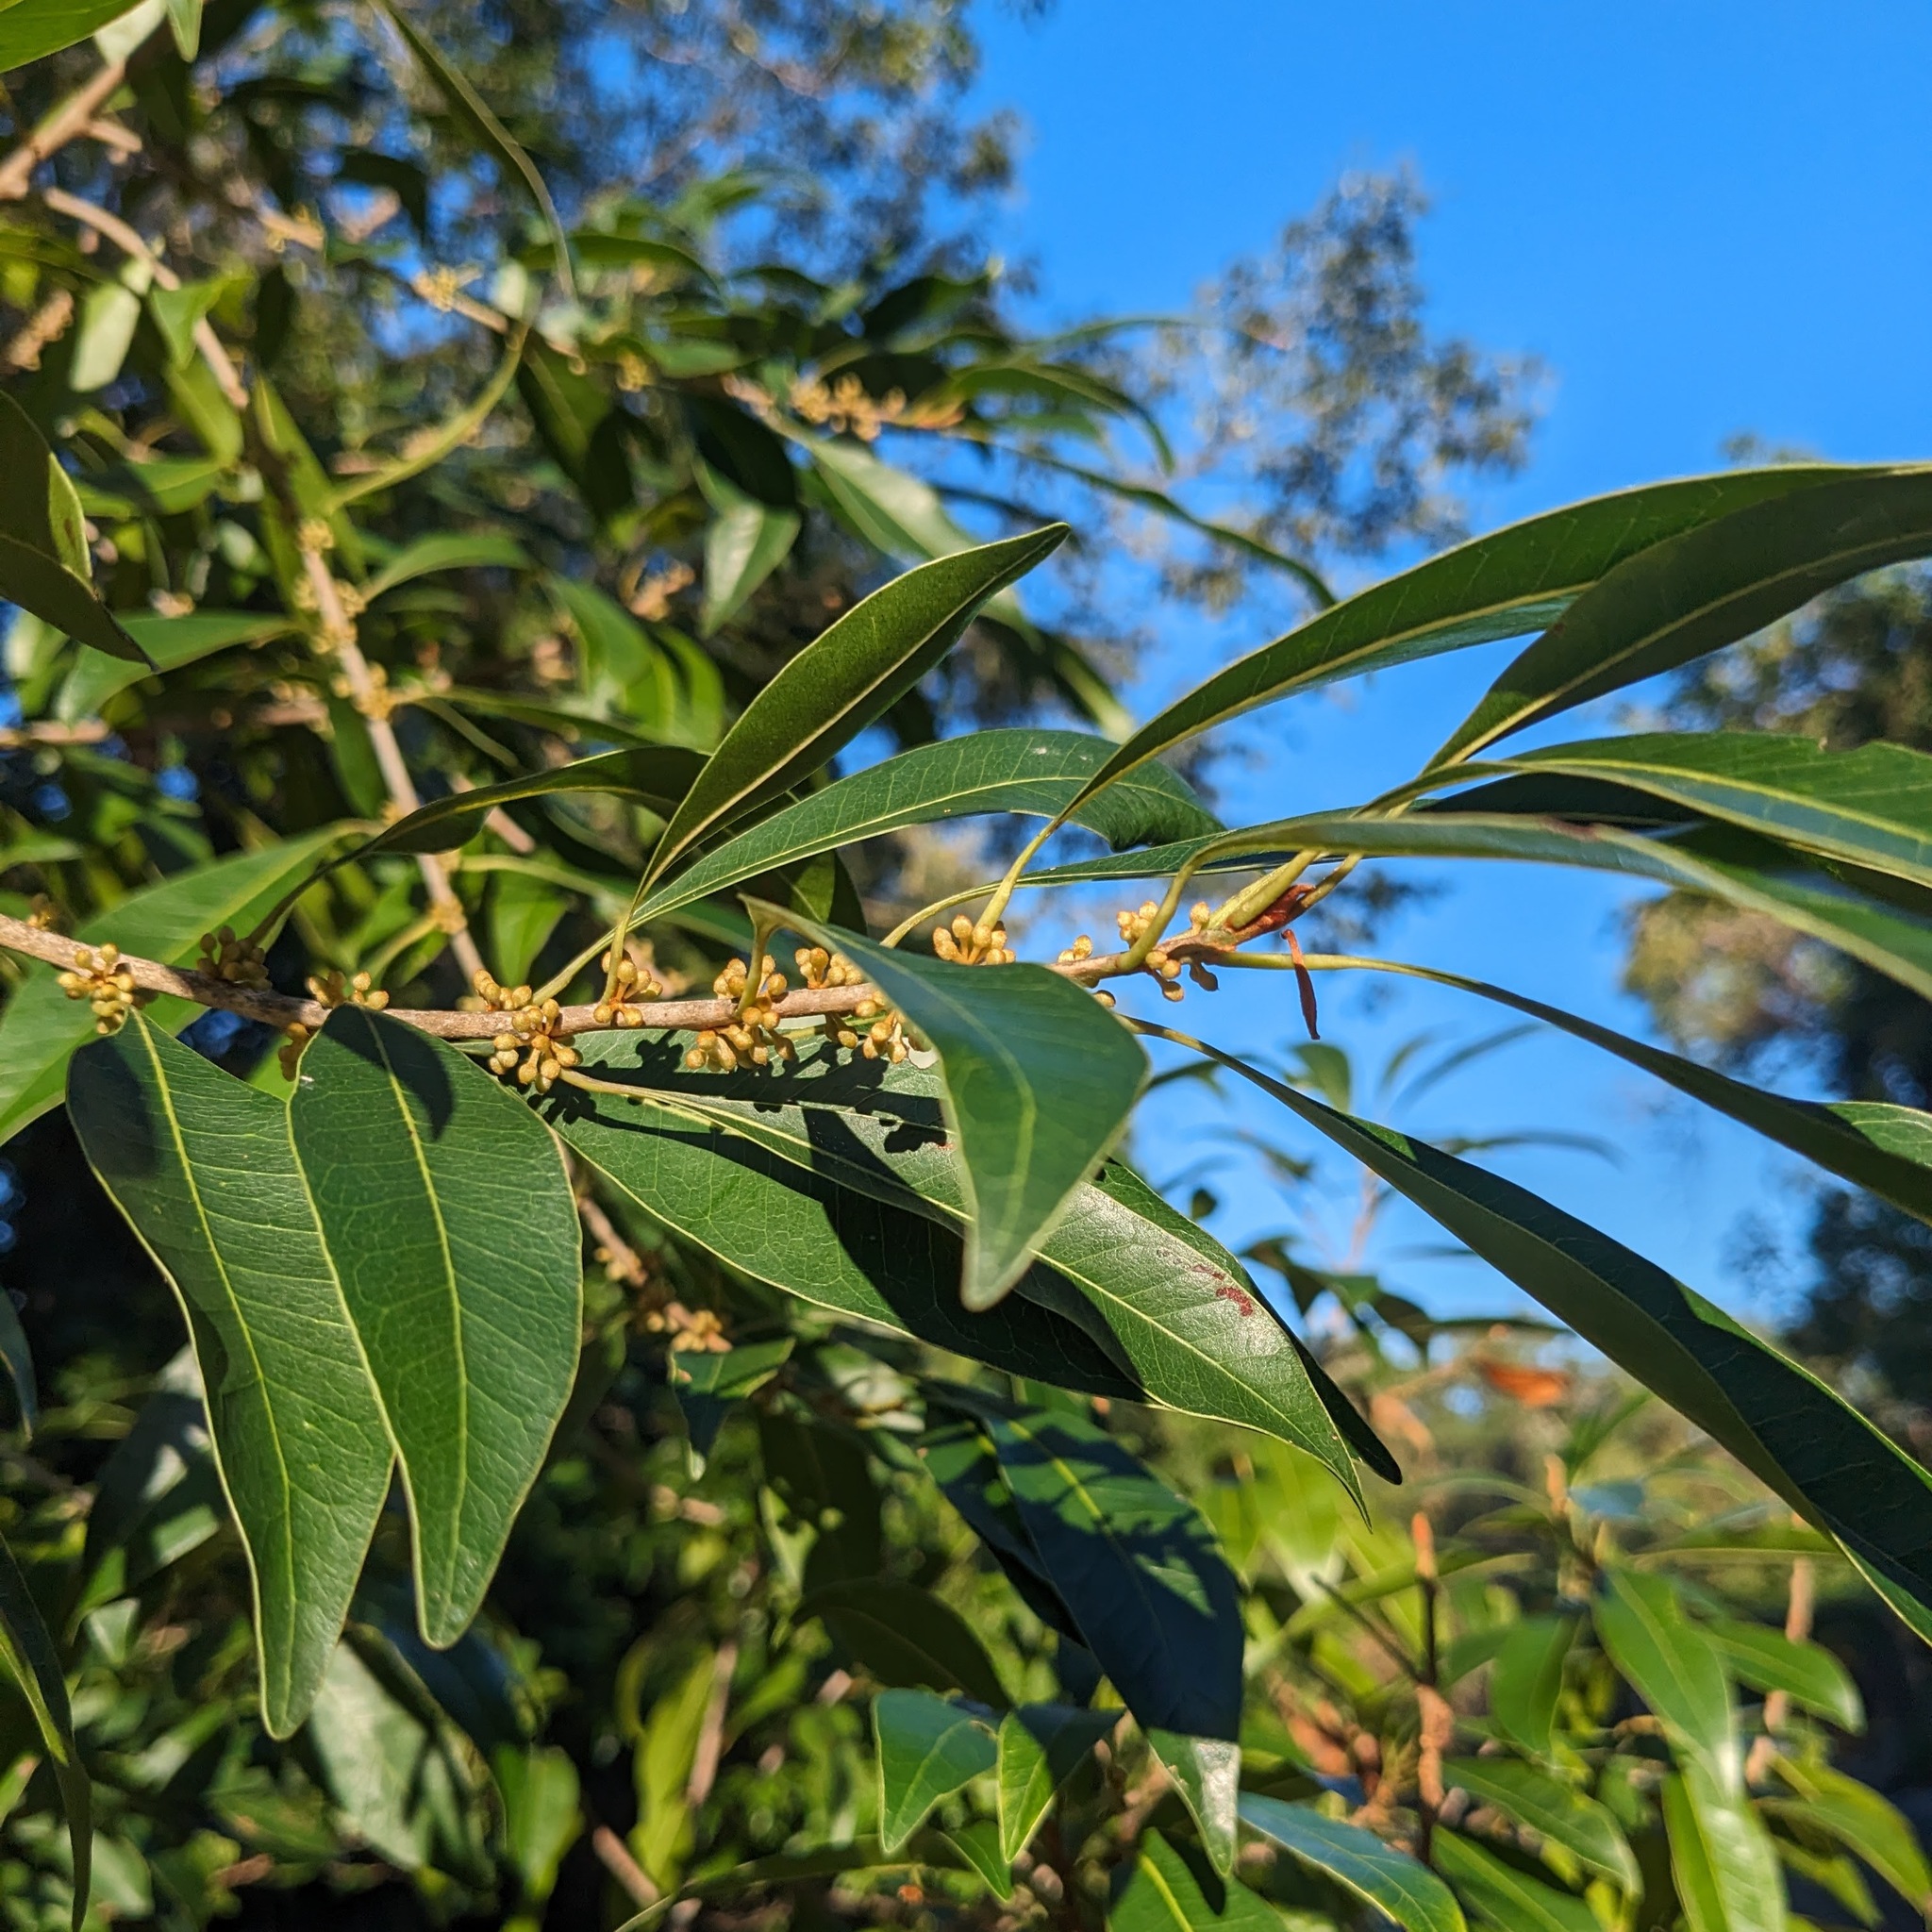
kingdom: Plantae
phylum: Tracheophyta
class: Magnoliopsida
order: Ericales
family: Sapotaceae
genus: Sideroxylon
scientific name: Sideroxylon salicifolium
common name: White bully
